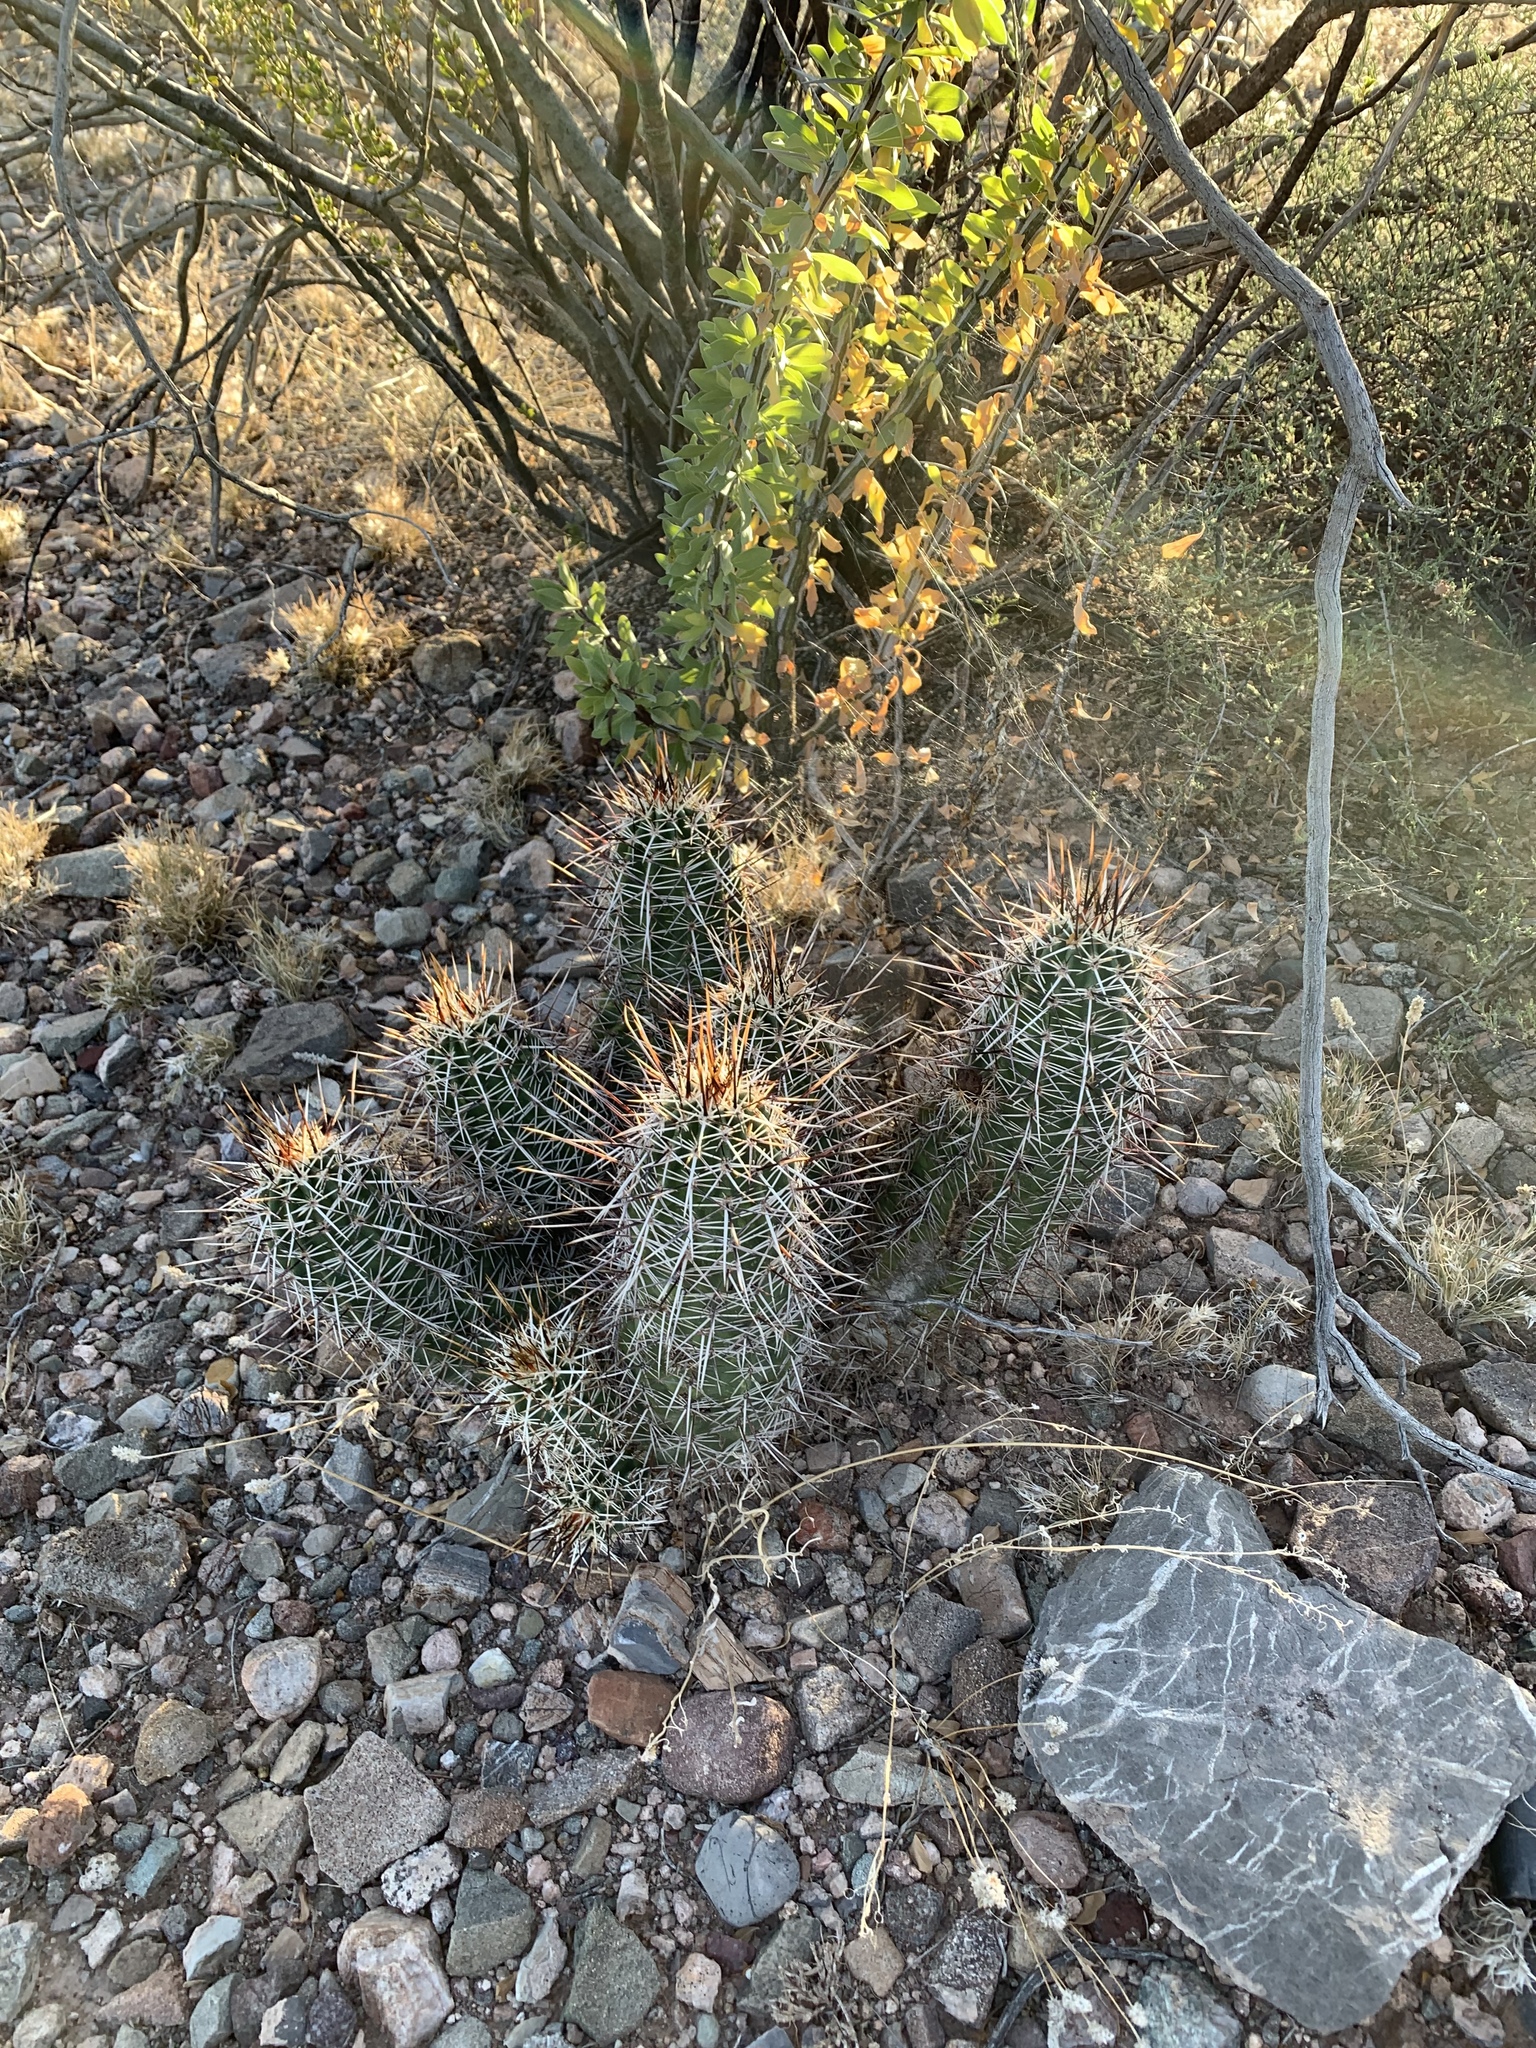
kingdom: Plantae
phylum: Tracheophyta
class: Magnoliopsida
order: Caryophyllales
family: Cactaceae
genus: Echinocereus
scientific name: Echinocereus fasciculatus
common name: Bundle hedgehog
